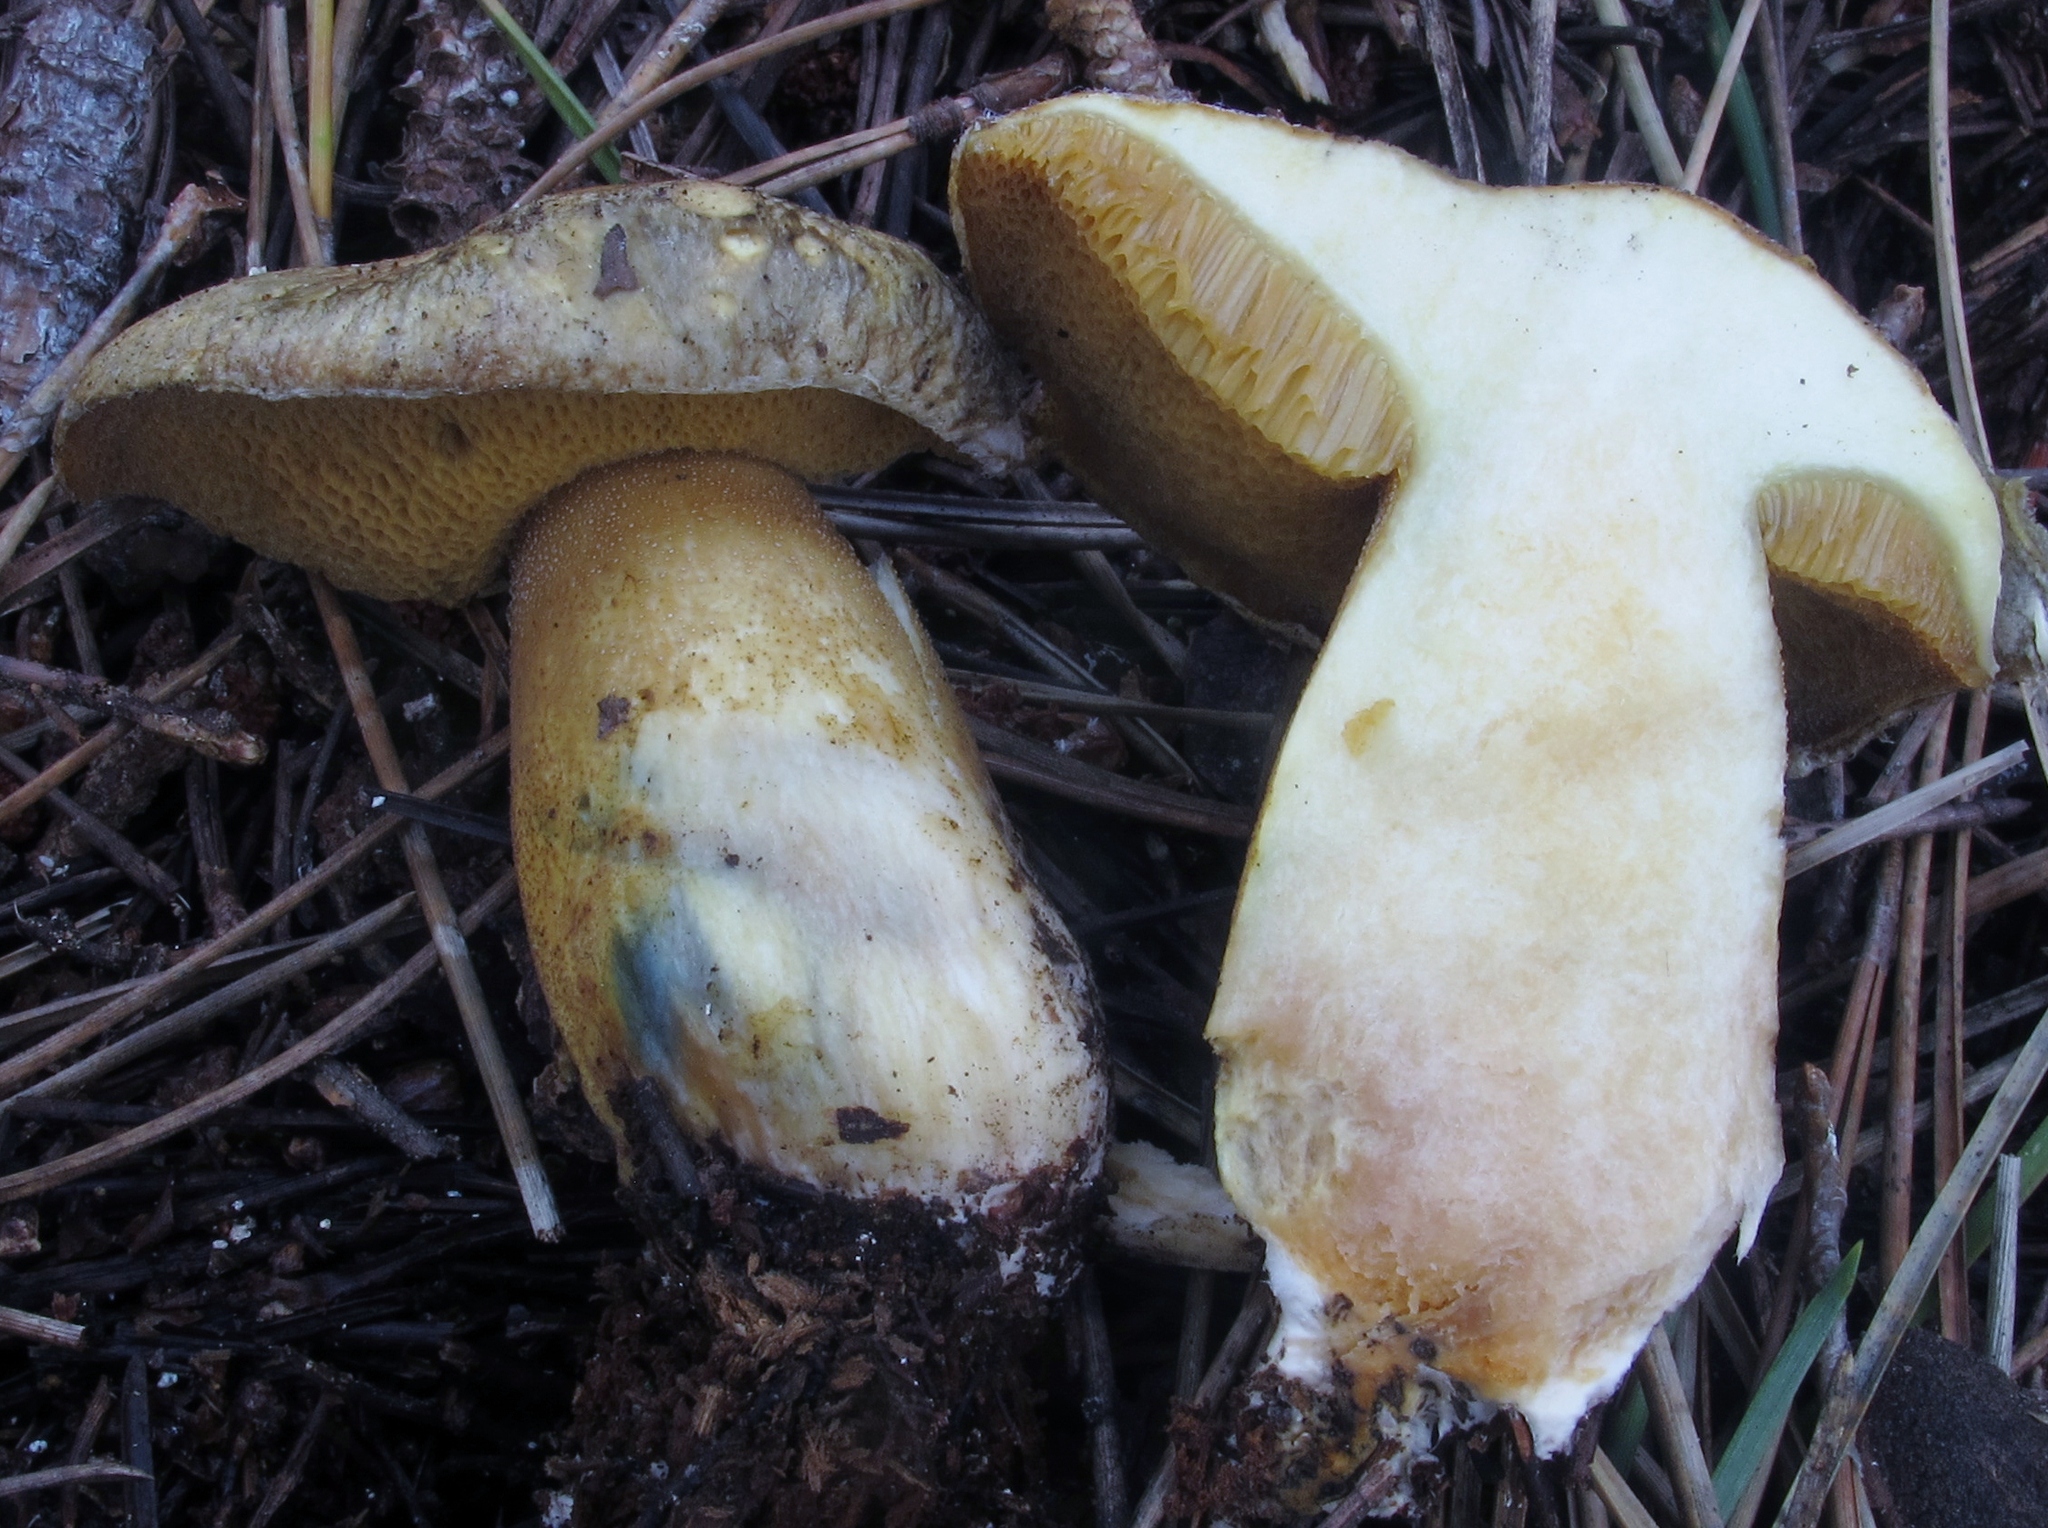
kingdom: Fungi
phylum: Basidiomycota
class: Agaricomycetes
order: Boletales
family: Suillaceae
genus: Suillus
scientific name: Suillus tomentosus
